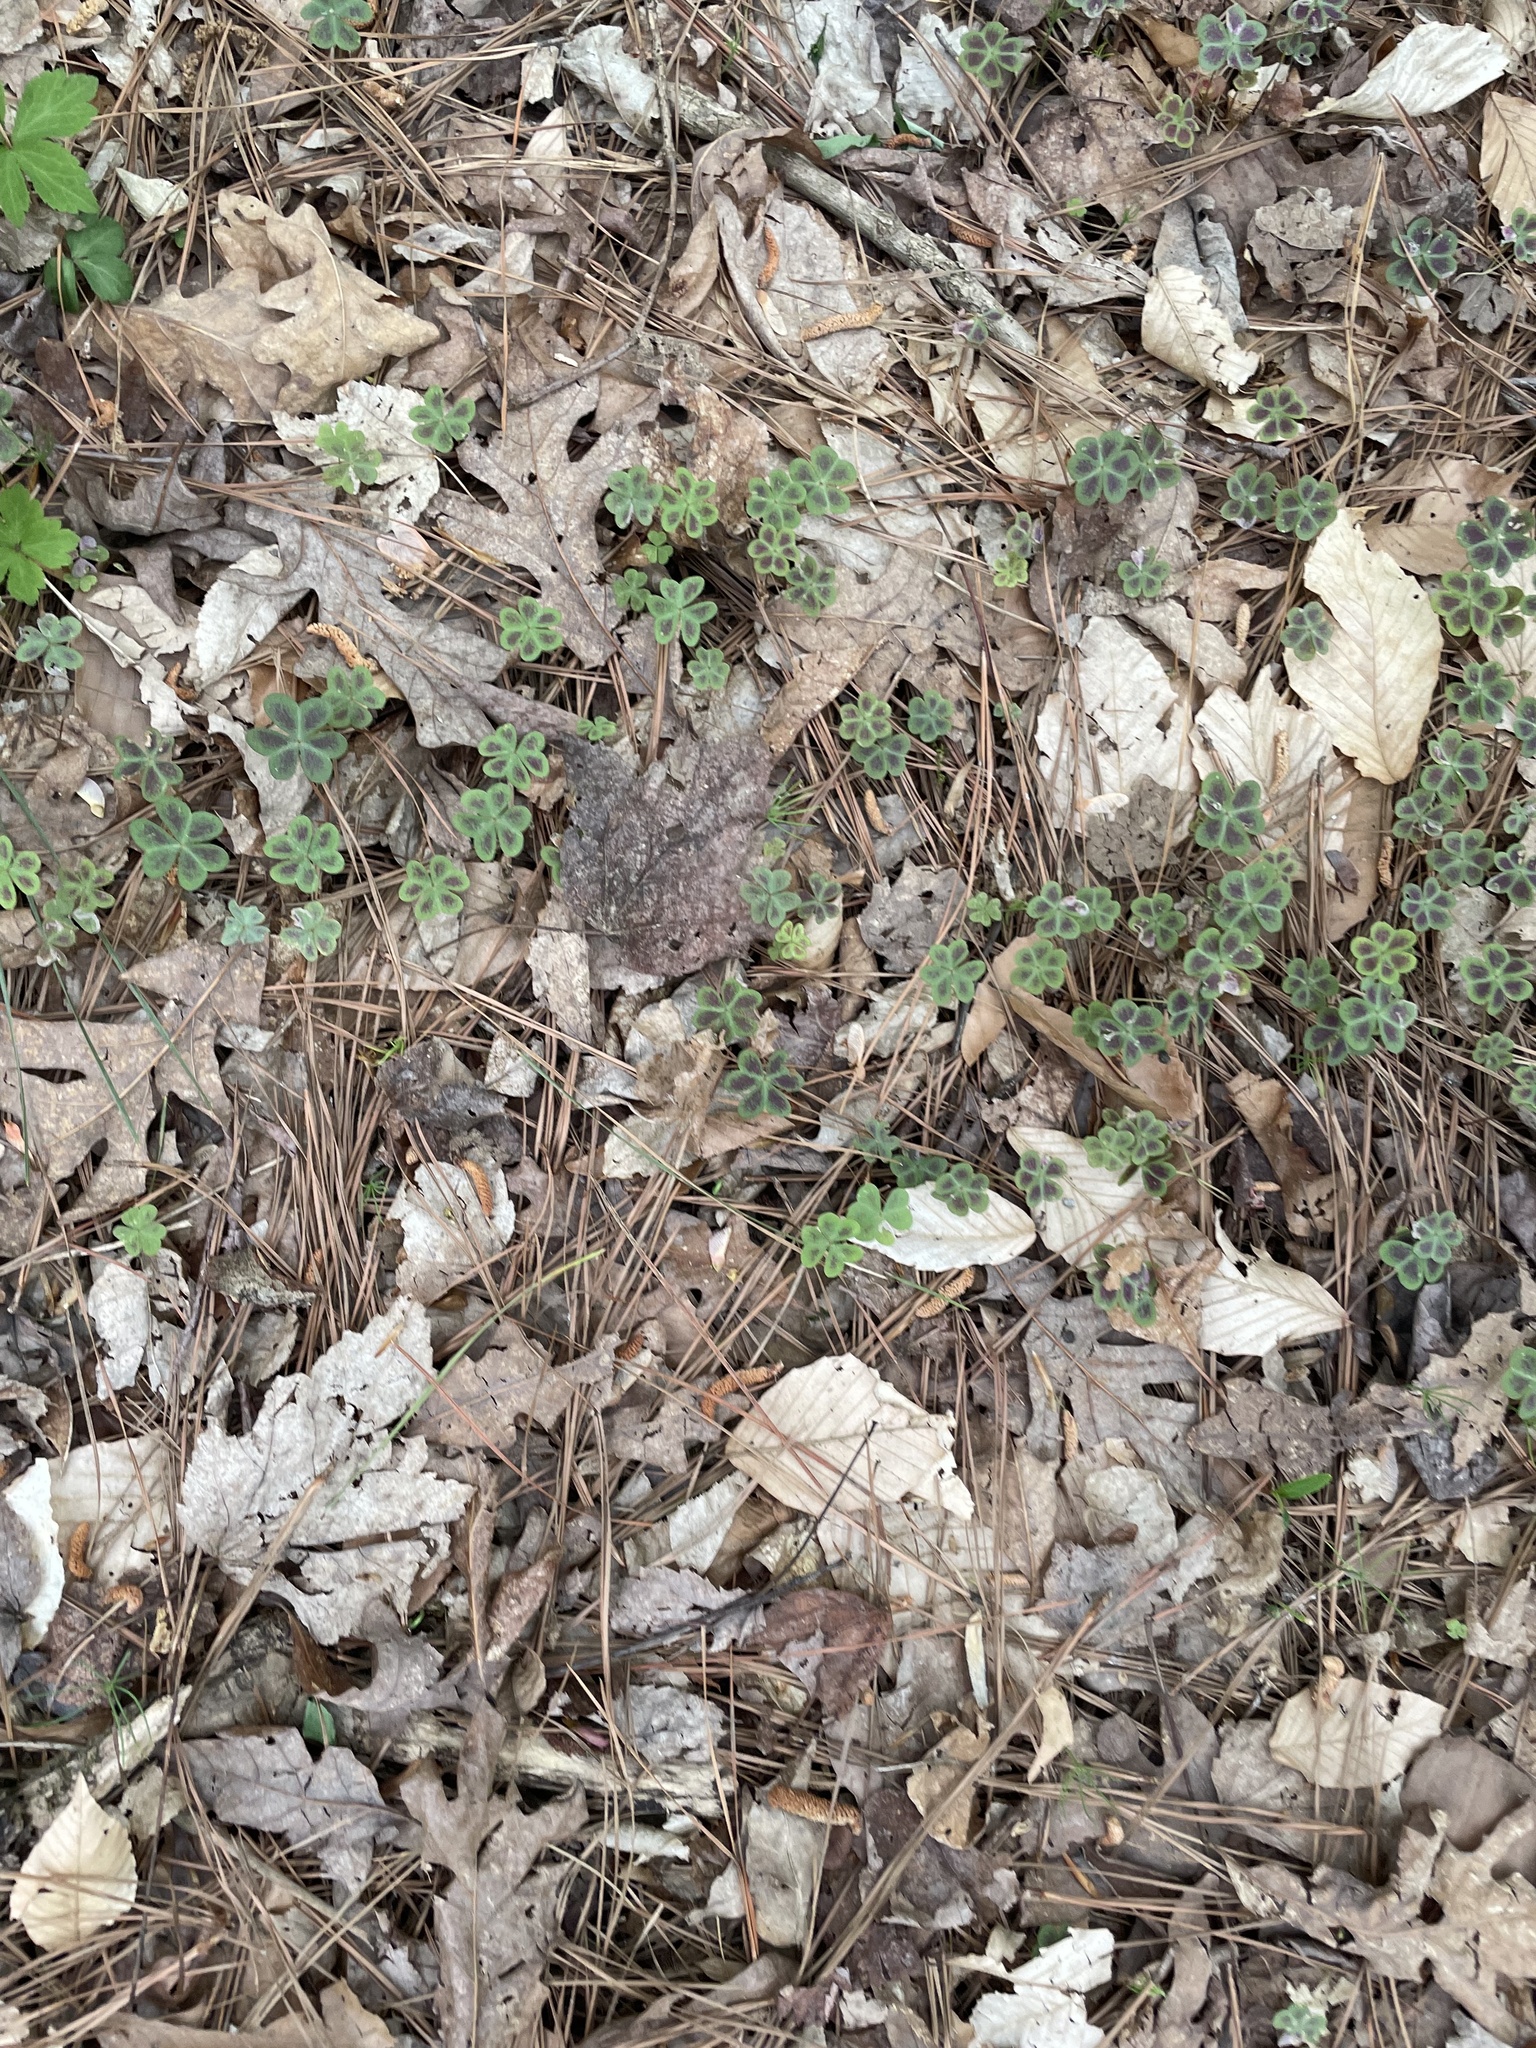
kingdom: Plantae
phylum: Tracheophyta
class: Magnoliopsida
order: Oxalidales
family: Oxalidaceae
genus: Oxalis
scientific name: Oxalis violacea
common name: Violet wood-sorrel
